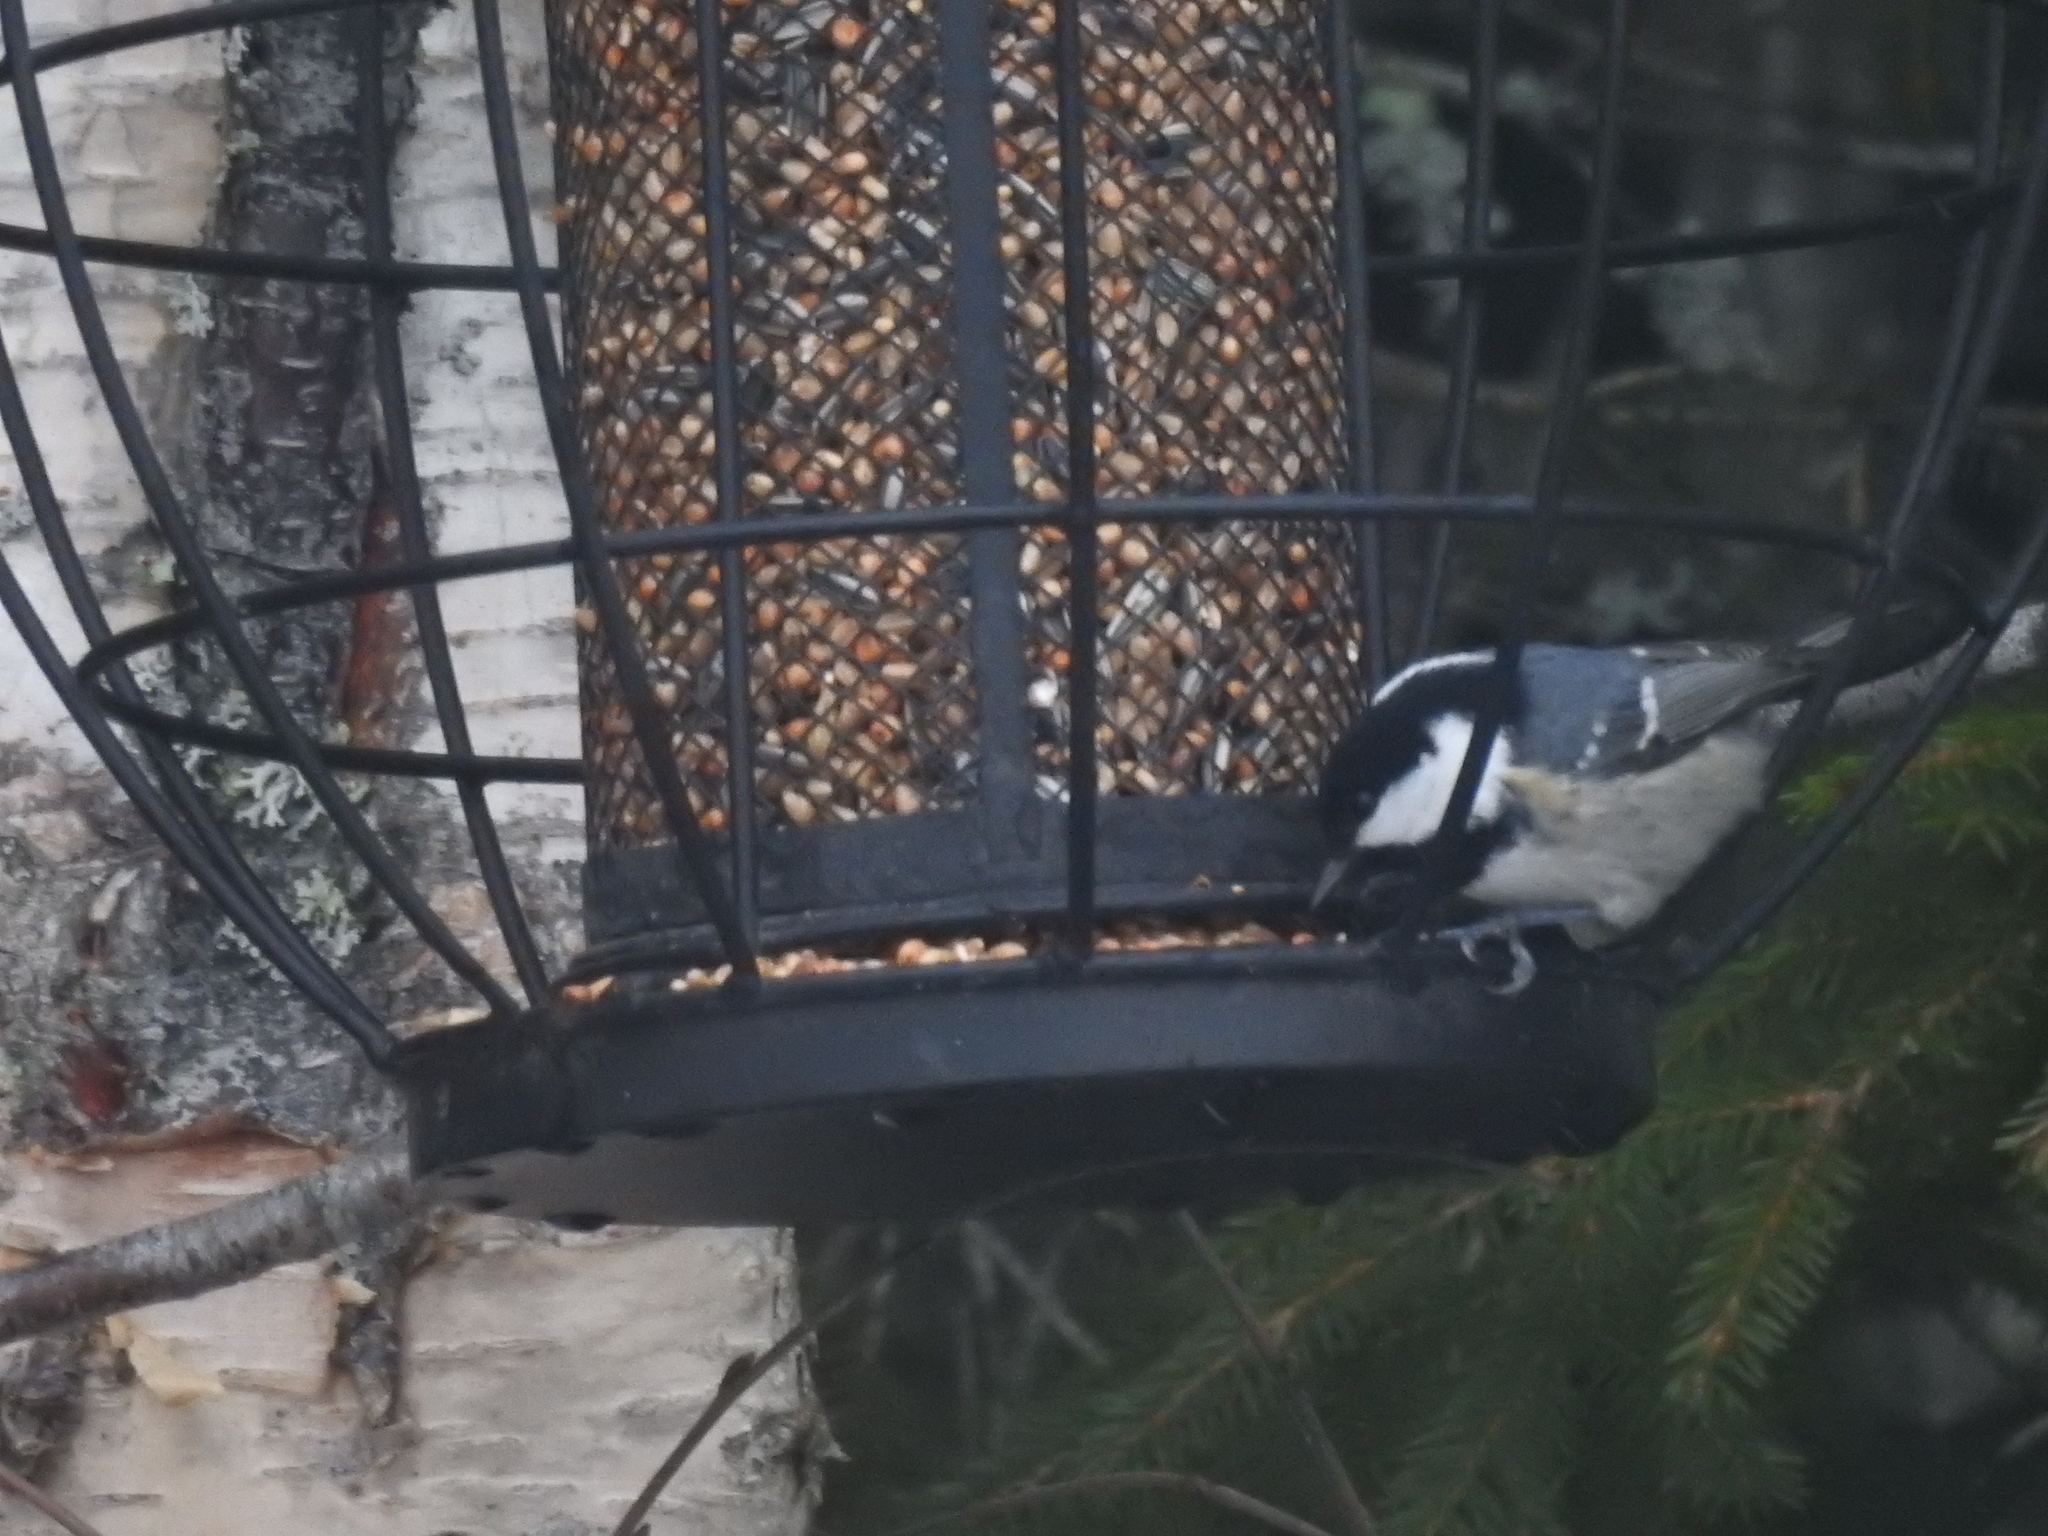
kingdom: Animalia
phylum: Chordata
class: Aves
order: Passeriformes
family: Paridae
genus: Periparus
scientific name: Periparus ater
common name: Coal tit
